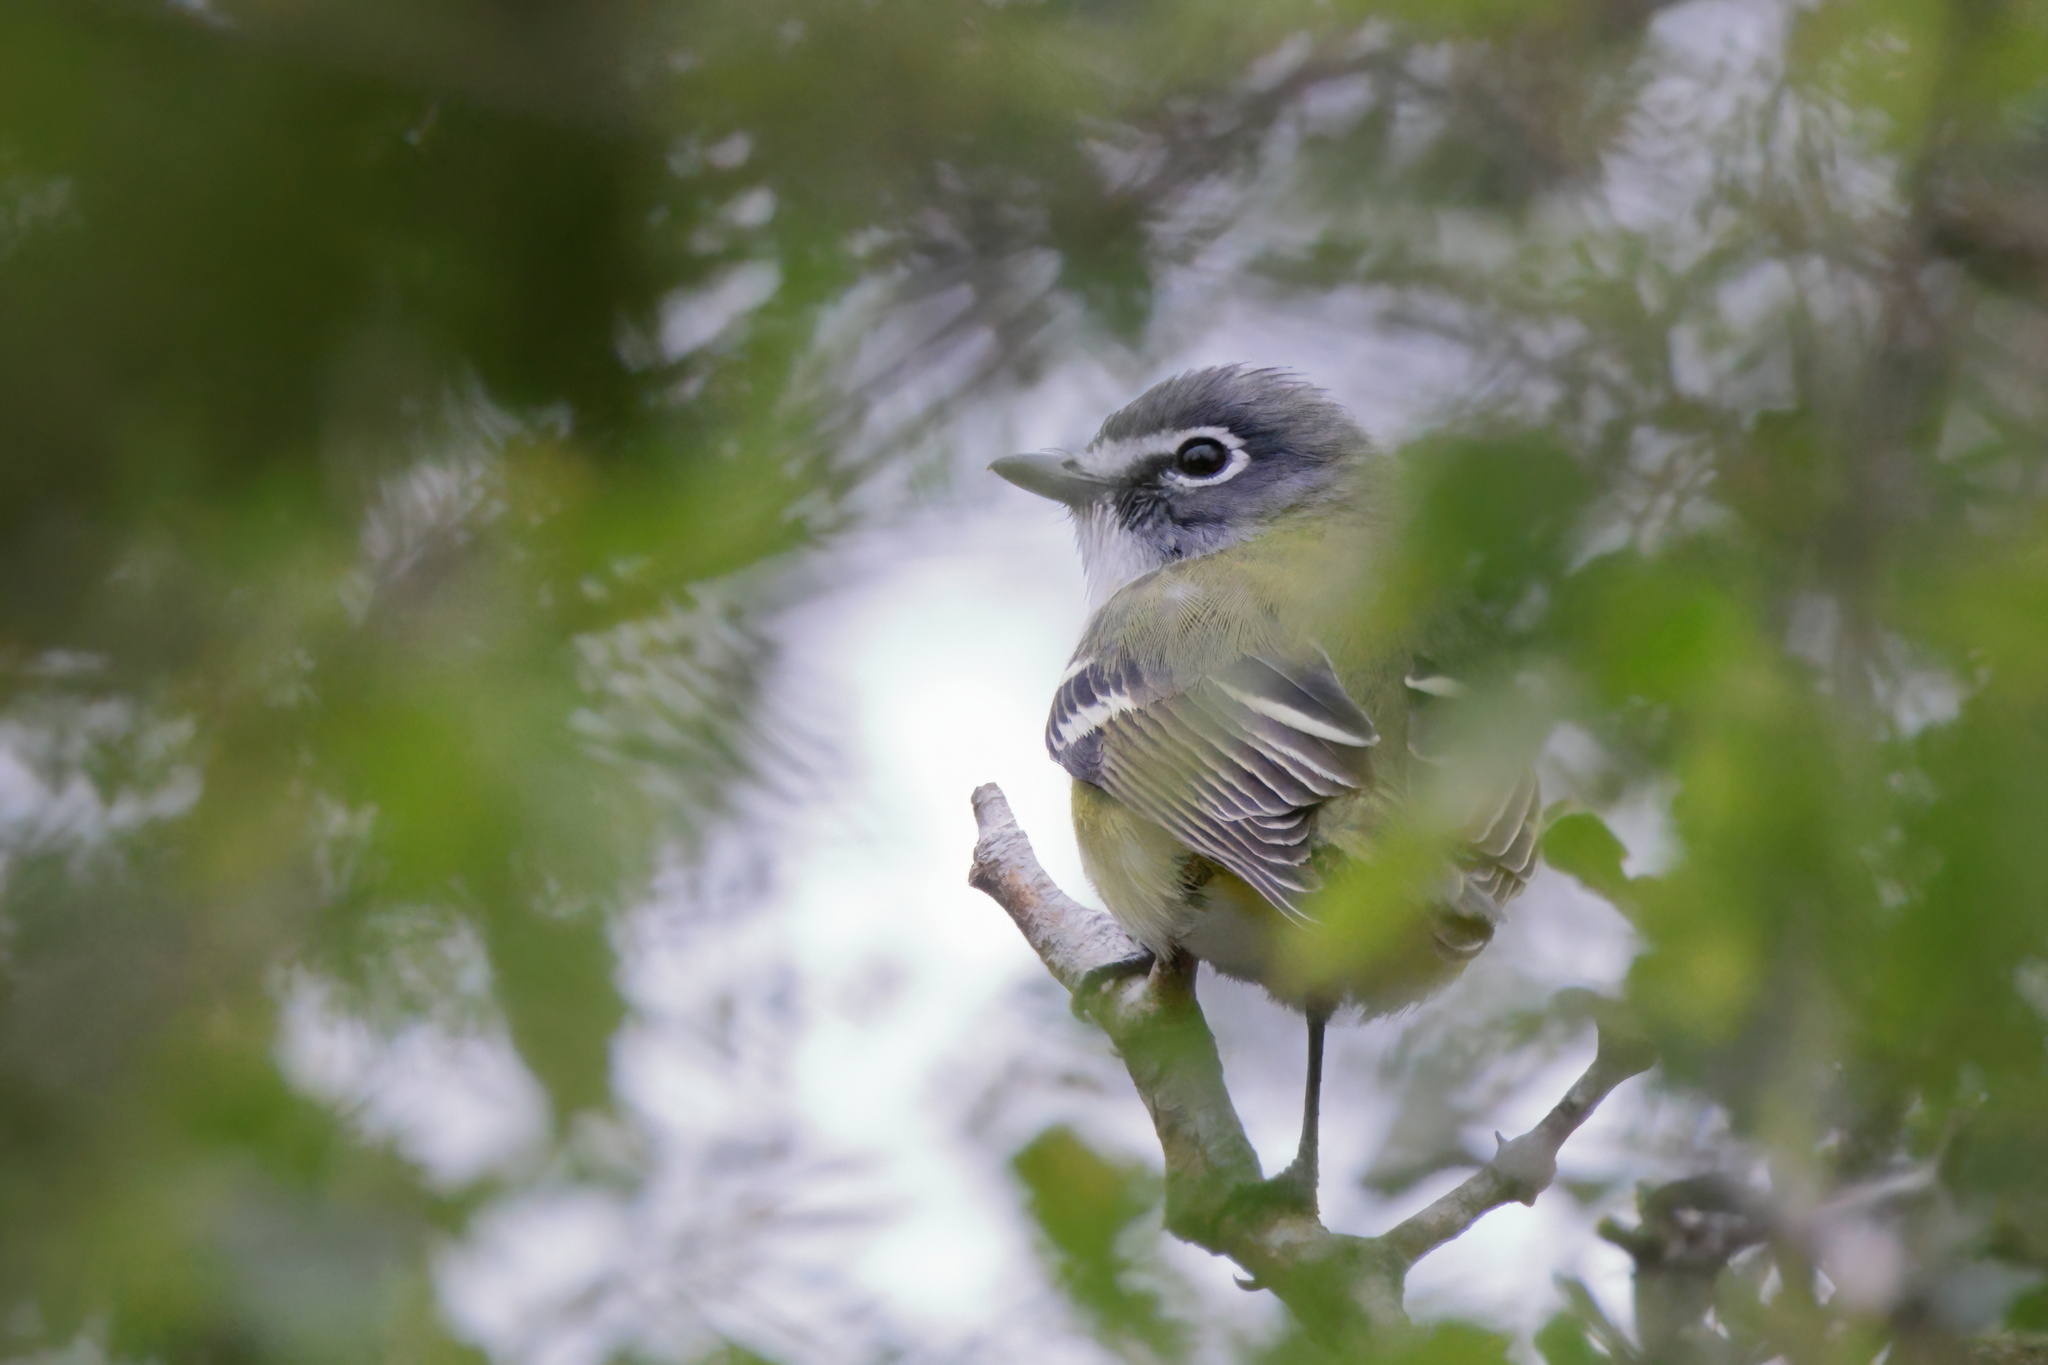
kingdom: Animalia
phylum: Chordata
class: Aves
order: Passeriformes
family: Vireonidae
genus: Vireo
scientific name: Vireo solitarius
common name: Blue-headed vireo
